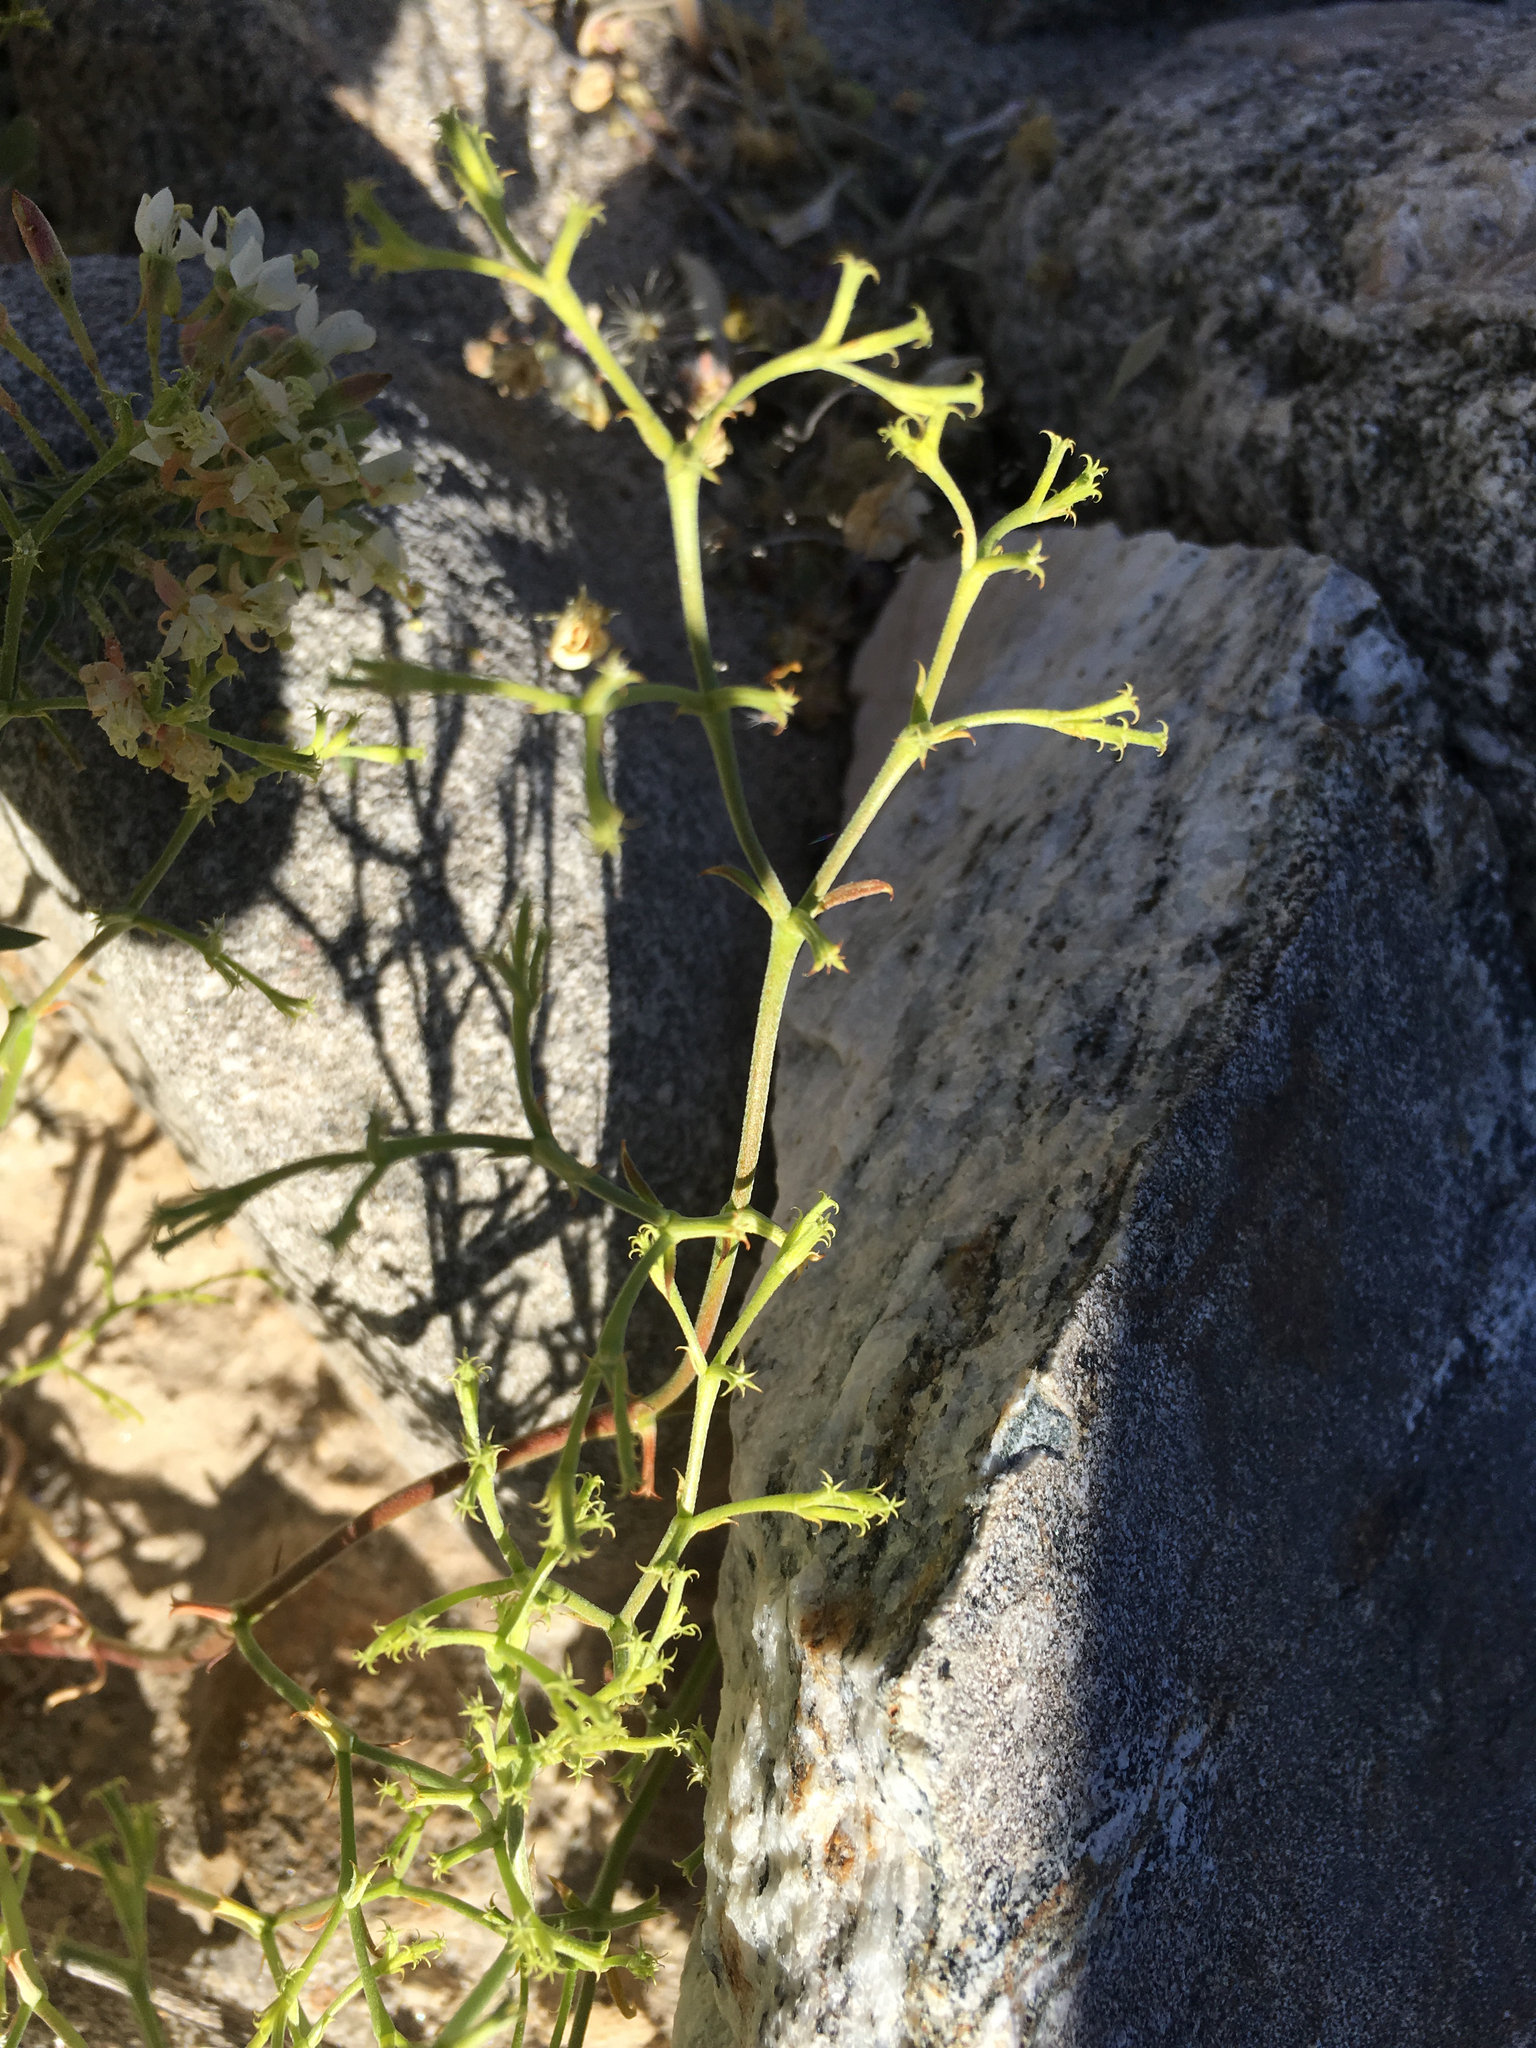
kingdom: Plantae
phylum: Tracheophyta
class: Magnoliopsida
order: Caryophyllales
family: Polygonaceae
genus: Chorizanthe
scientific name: Chorizanthe brevicornu
